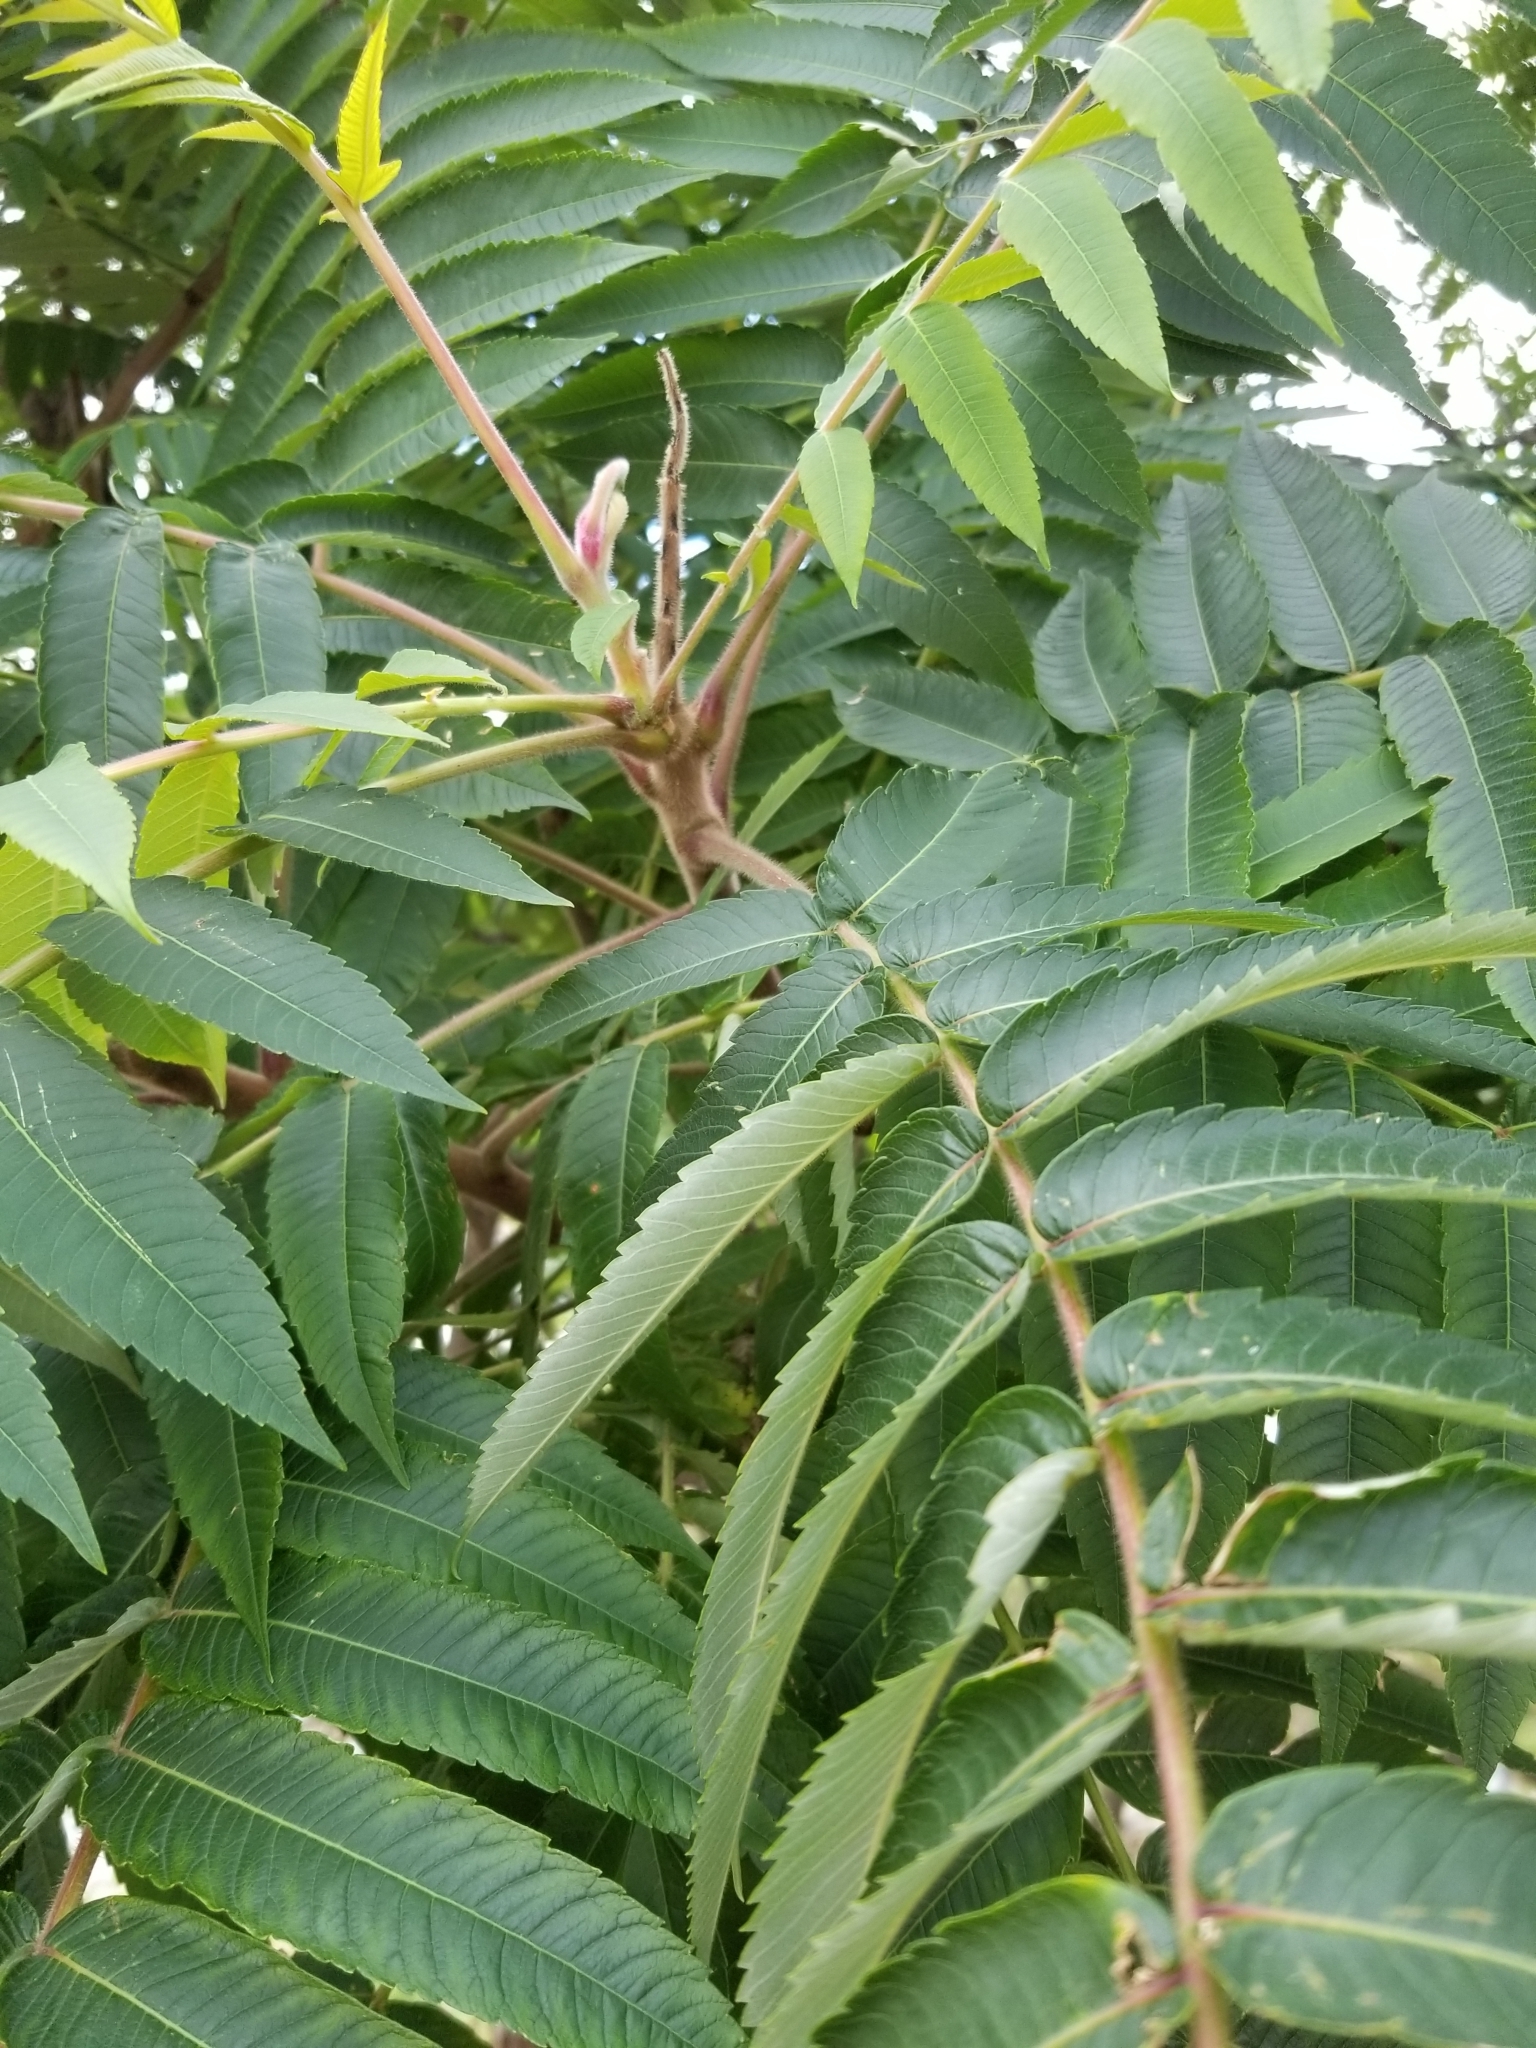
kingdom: Plantae
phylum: Tracheophyta
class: Magnoliopsida
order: Sapindales
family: Anacardiaceae
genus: Rhus
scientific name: Rhus typhina
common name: Staghorn sumac
